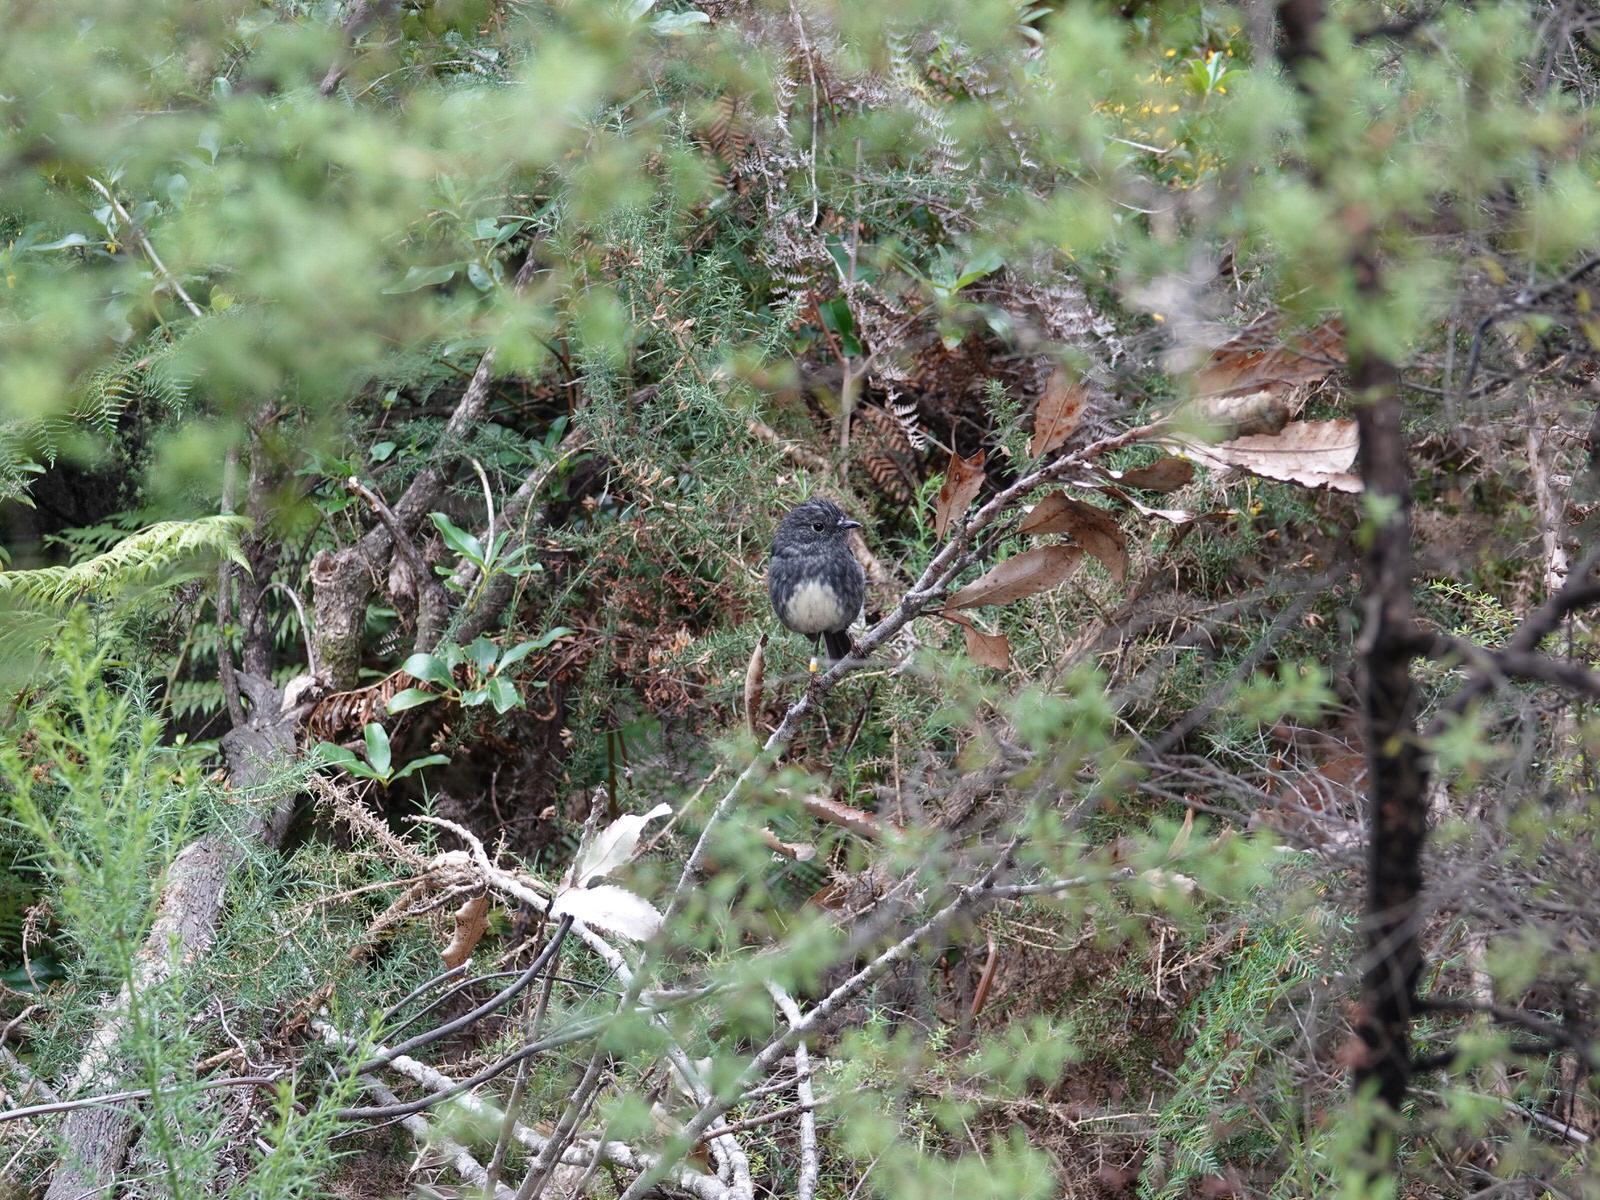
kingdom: Animalia
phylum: Chordata
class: Aves
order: Passeriformes
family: Petroicidae
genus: Petroica
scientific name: Petroica australis
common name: New zealand robin
